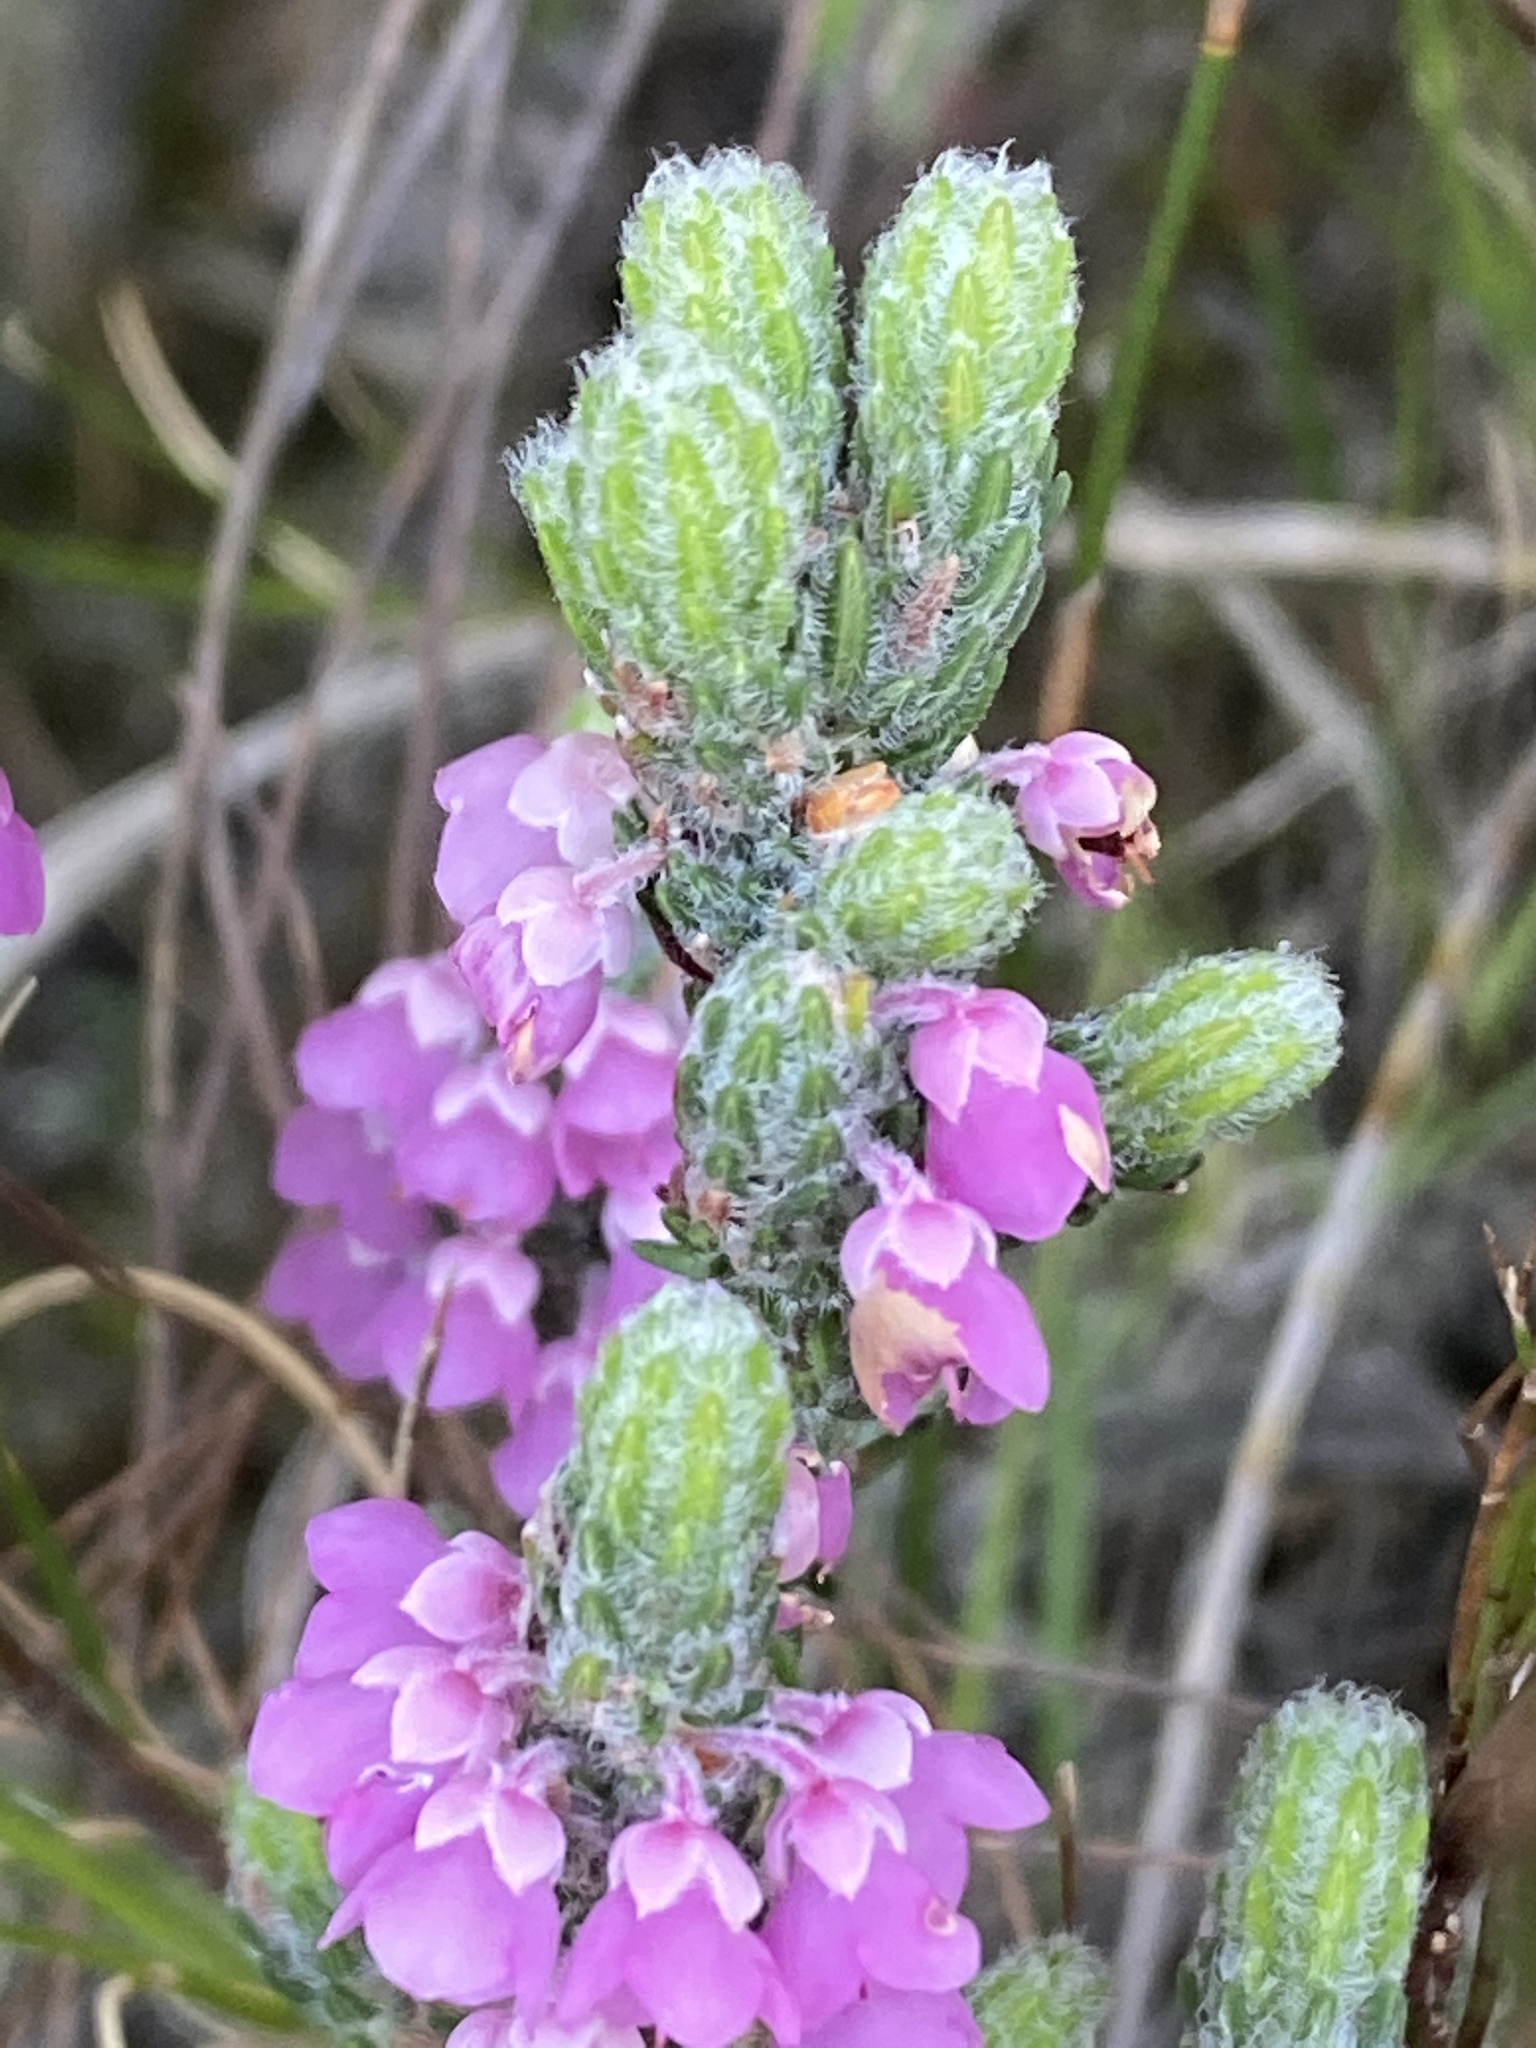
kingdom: Plantae
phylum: Tracheophyta
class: Magnoliopsida
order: Ericales
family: Ericaceae
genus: Erica
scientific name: Erica nervata
